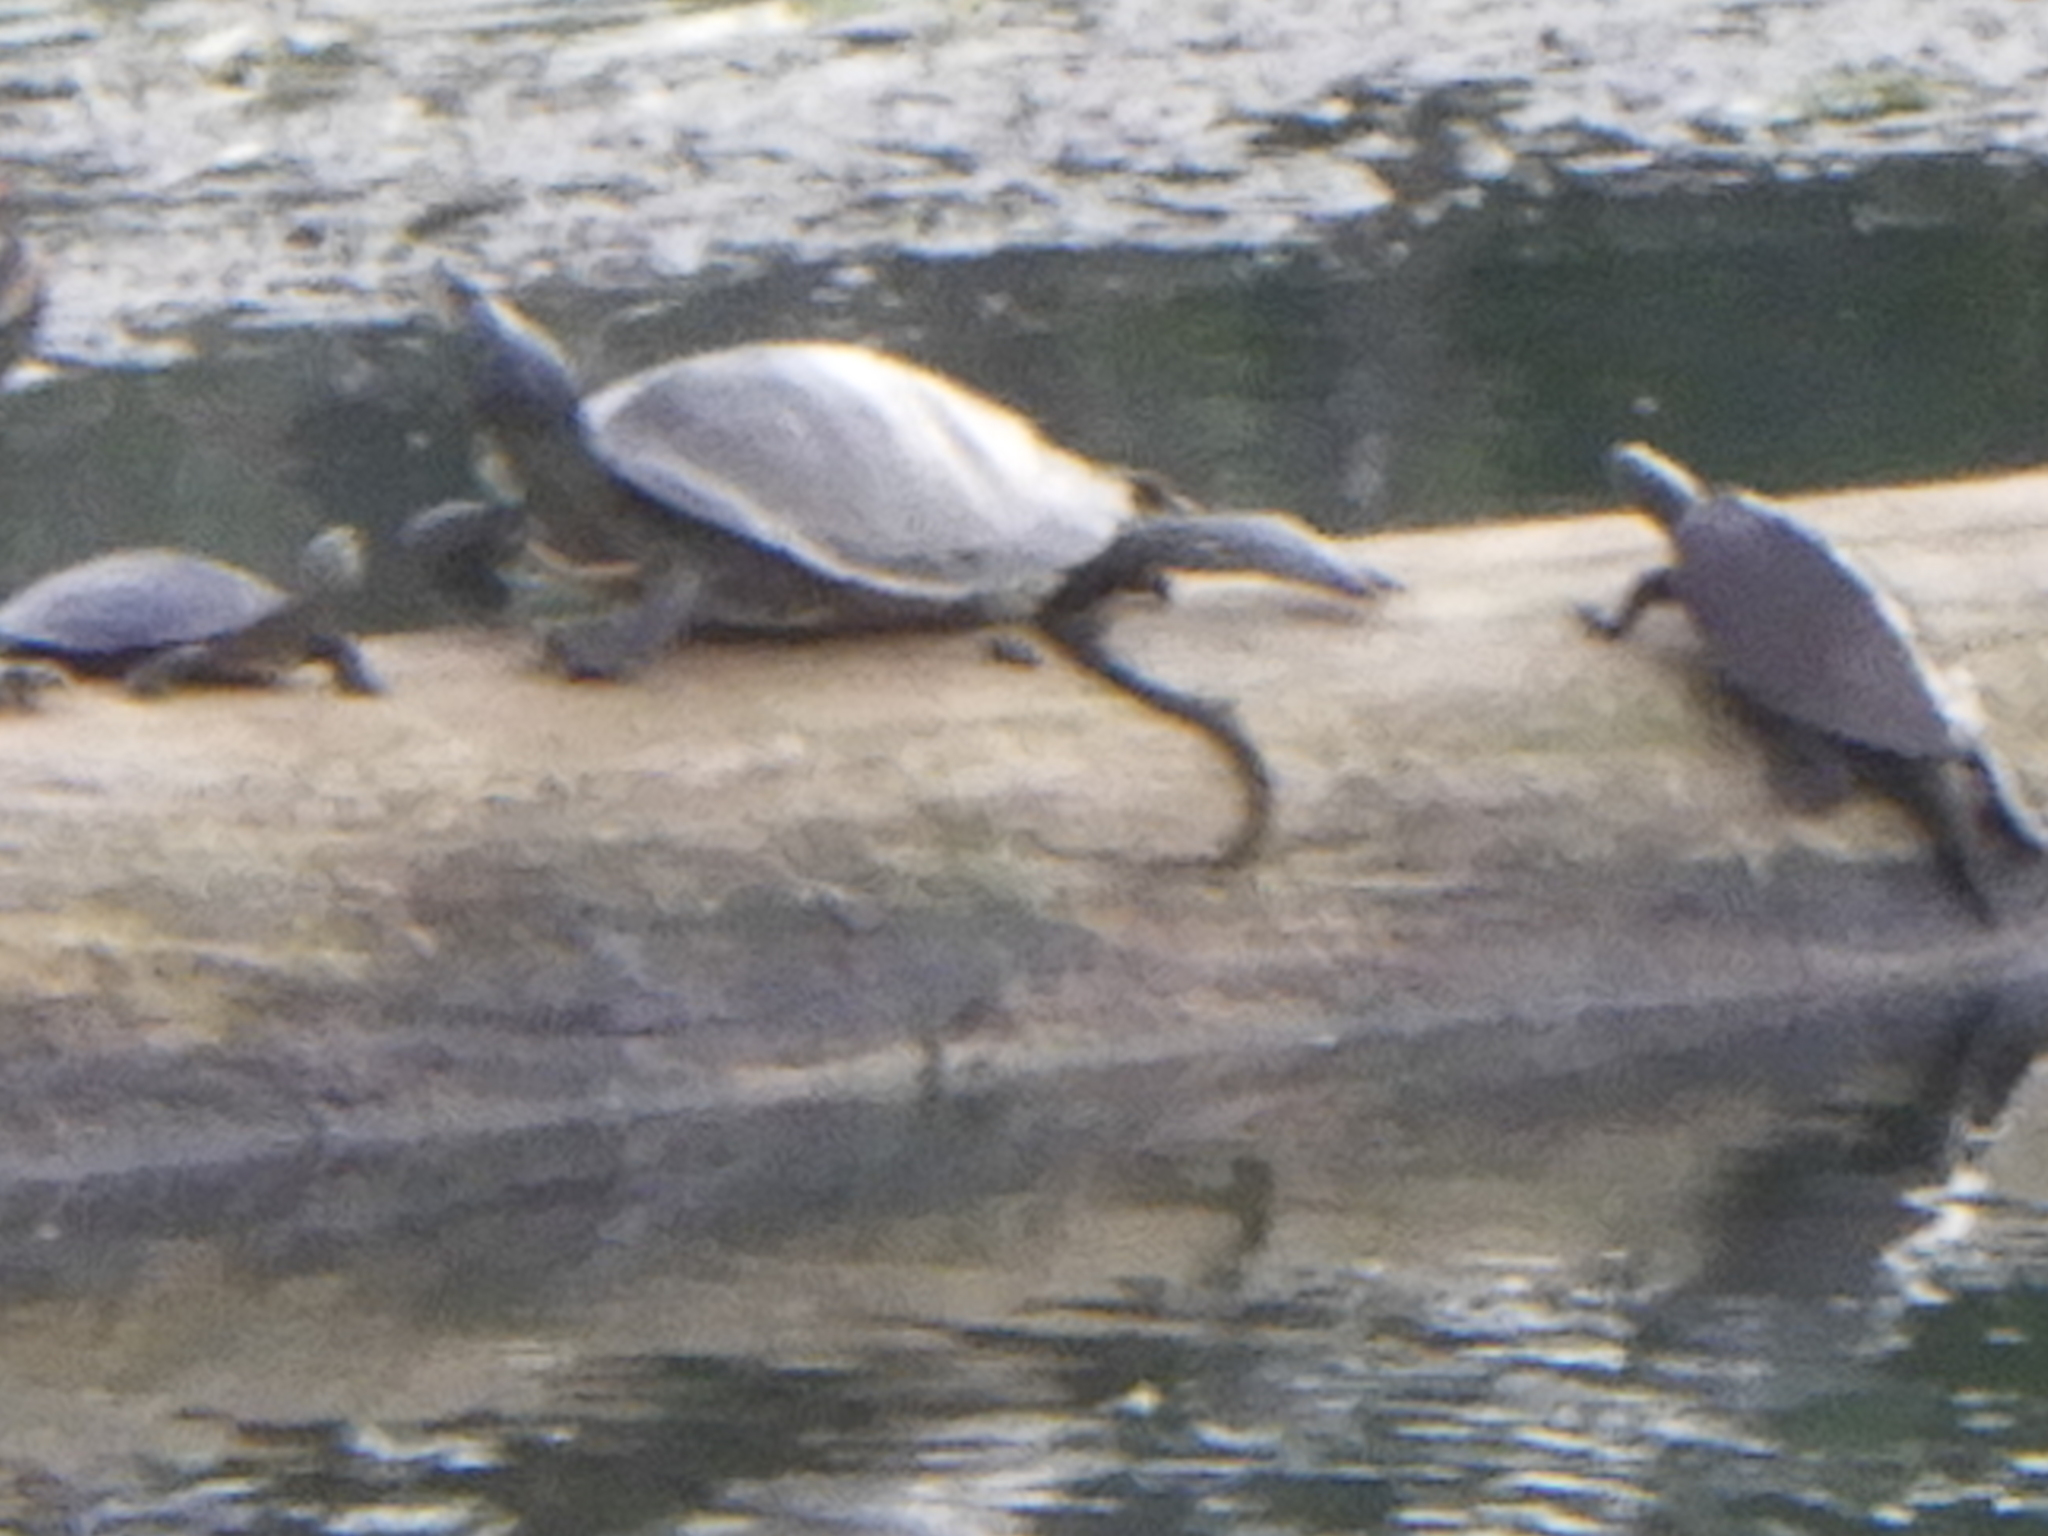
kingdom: Animalia
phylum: Chordata
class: Testudines
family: Emydidae
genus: Graptemys
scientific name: Graptemys geographica
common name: Common map turtle
